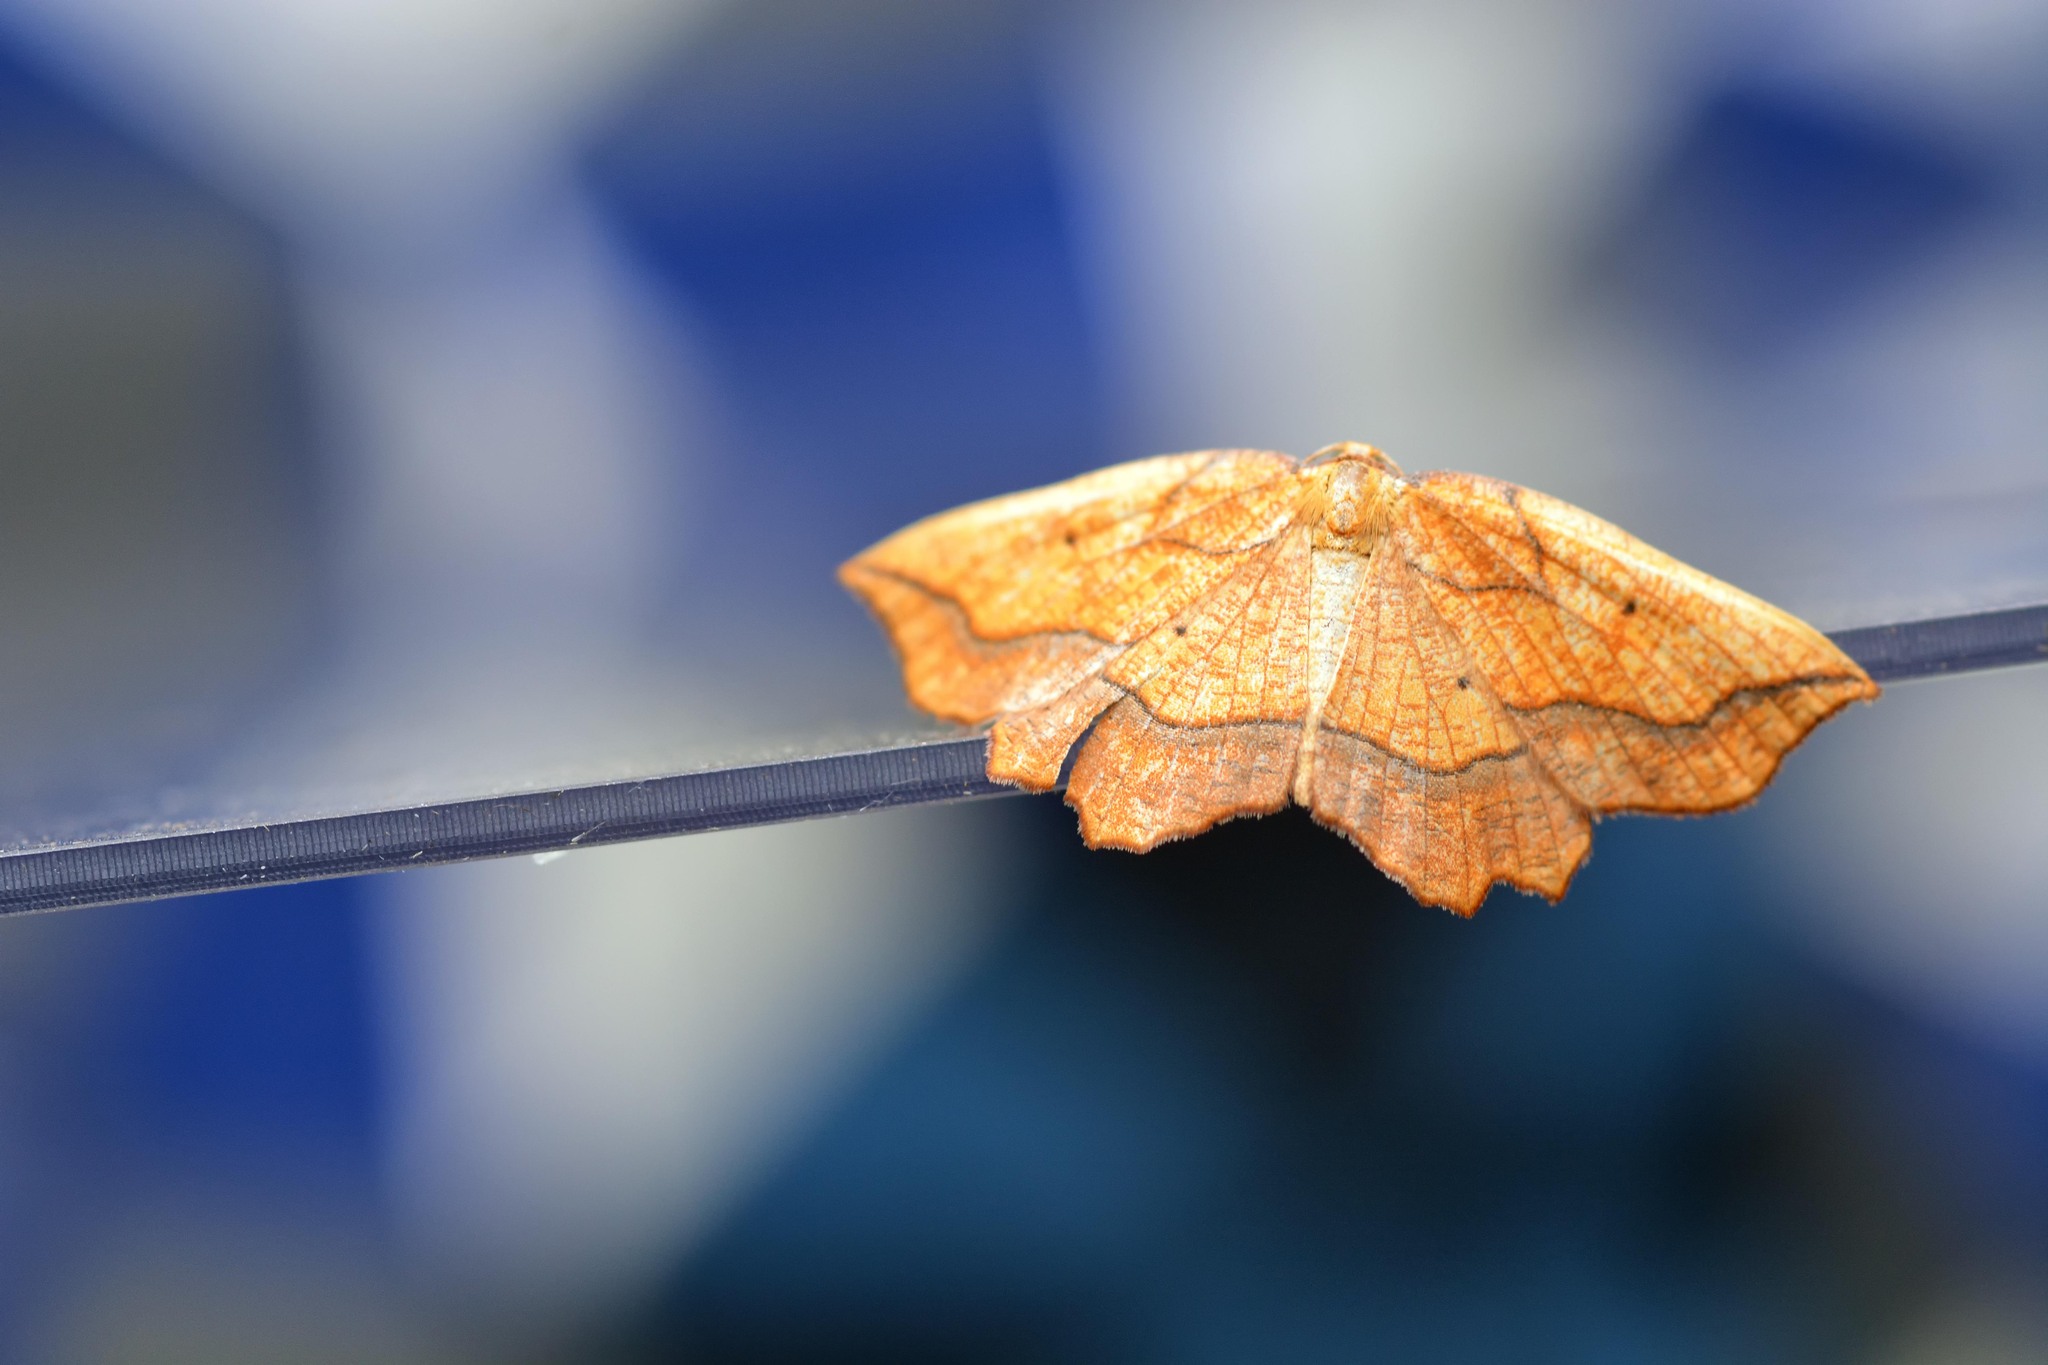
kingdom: Animalia
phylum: Arthropoda
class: Insecta
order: Lepidoptera
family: Geometridae
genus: Epione
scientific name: Epione repandaria
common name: Bordered beauty
